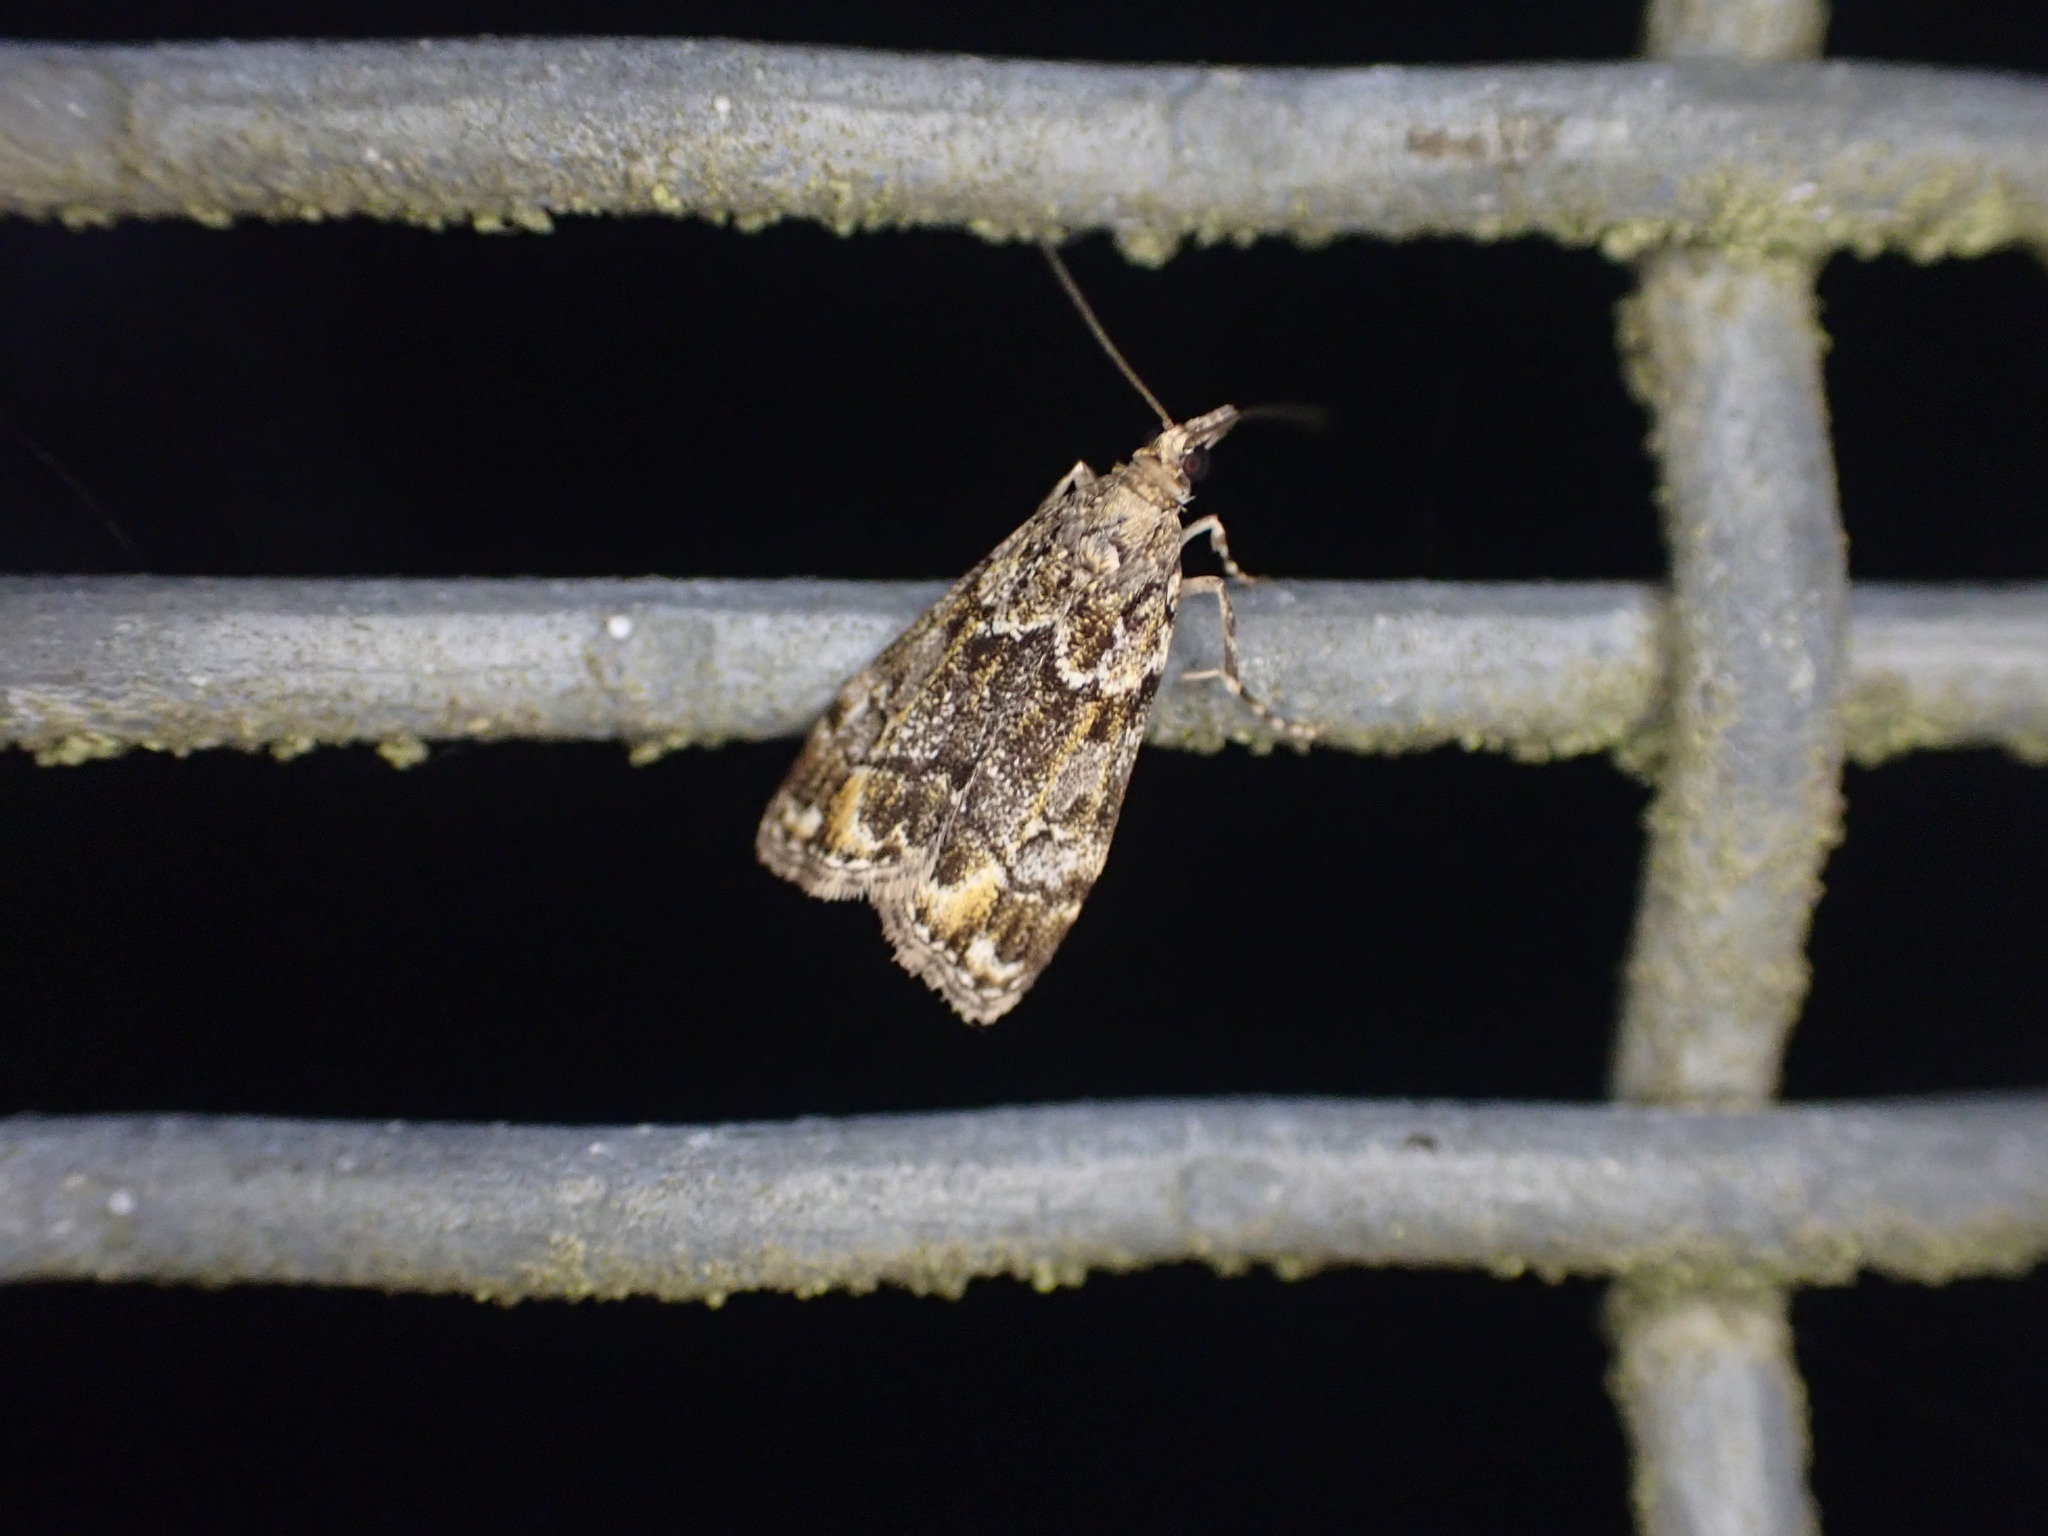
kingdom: Animalia
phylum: Arthropoda
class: Insecta
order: Lepidoptera
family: Crambidae
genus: Eudonia
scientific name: Eudonia minualis
